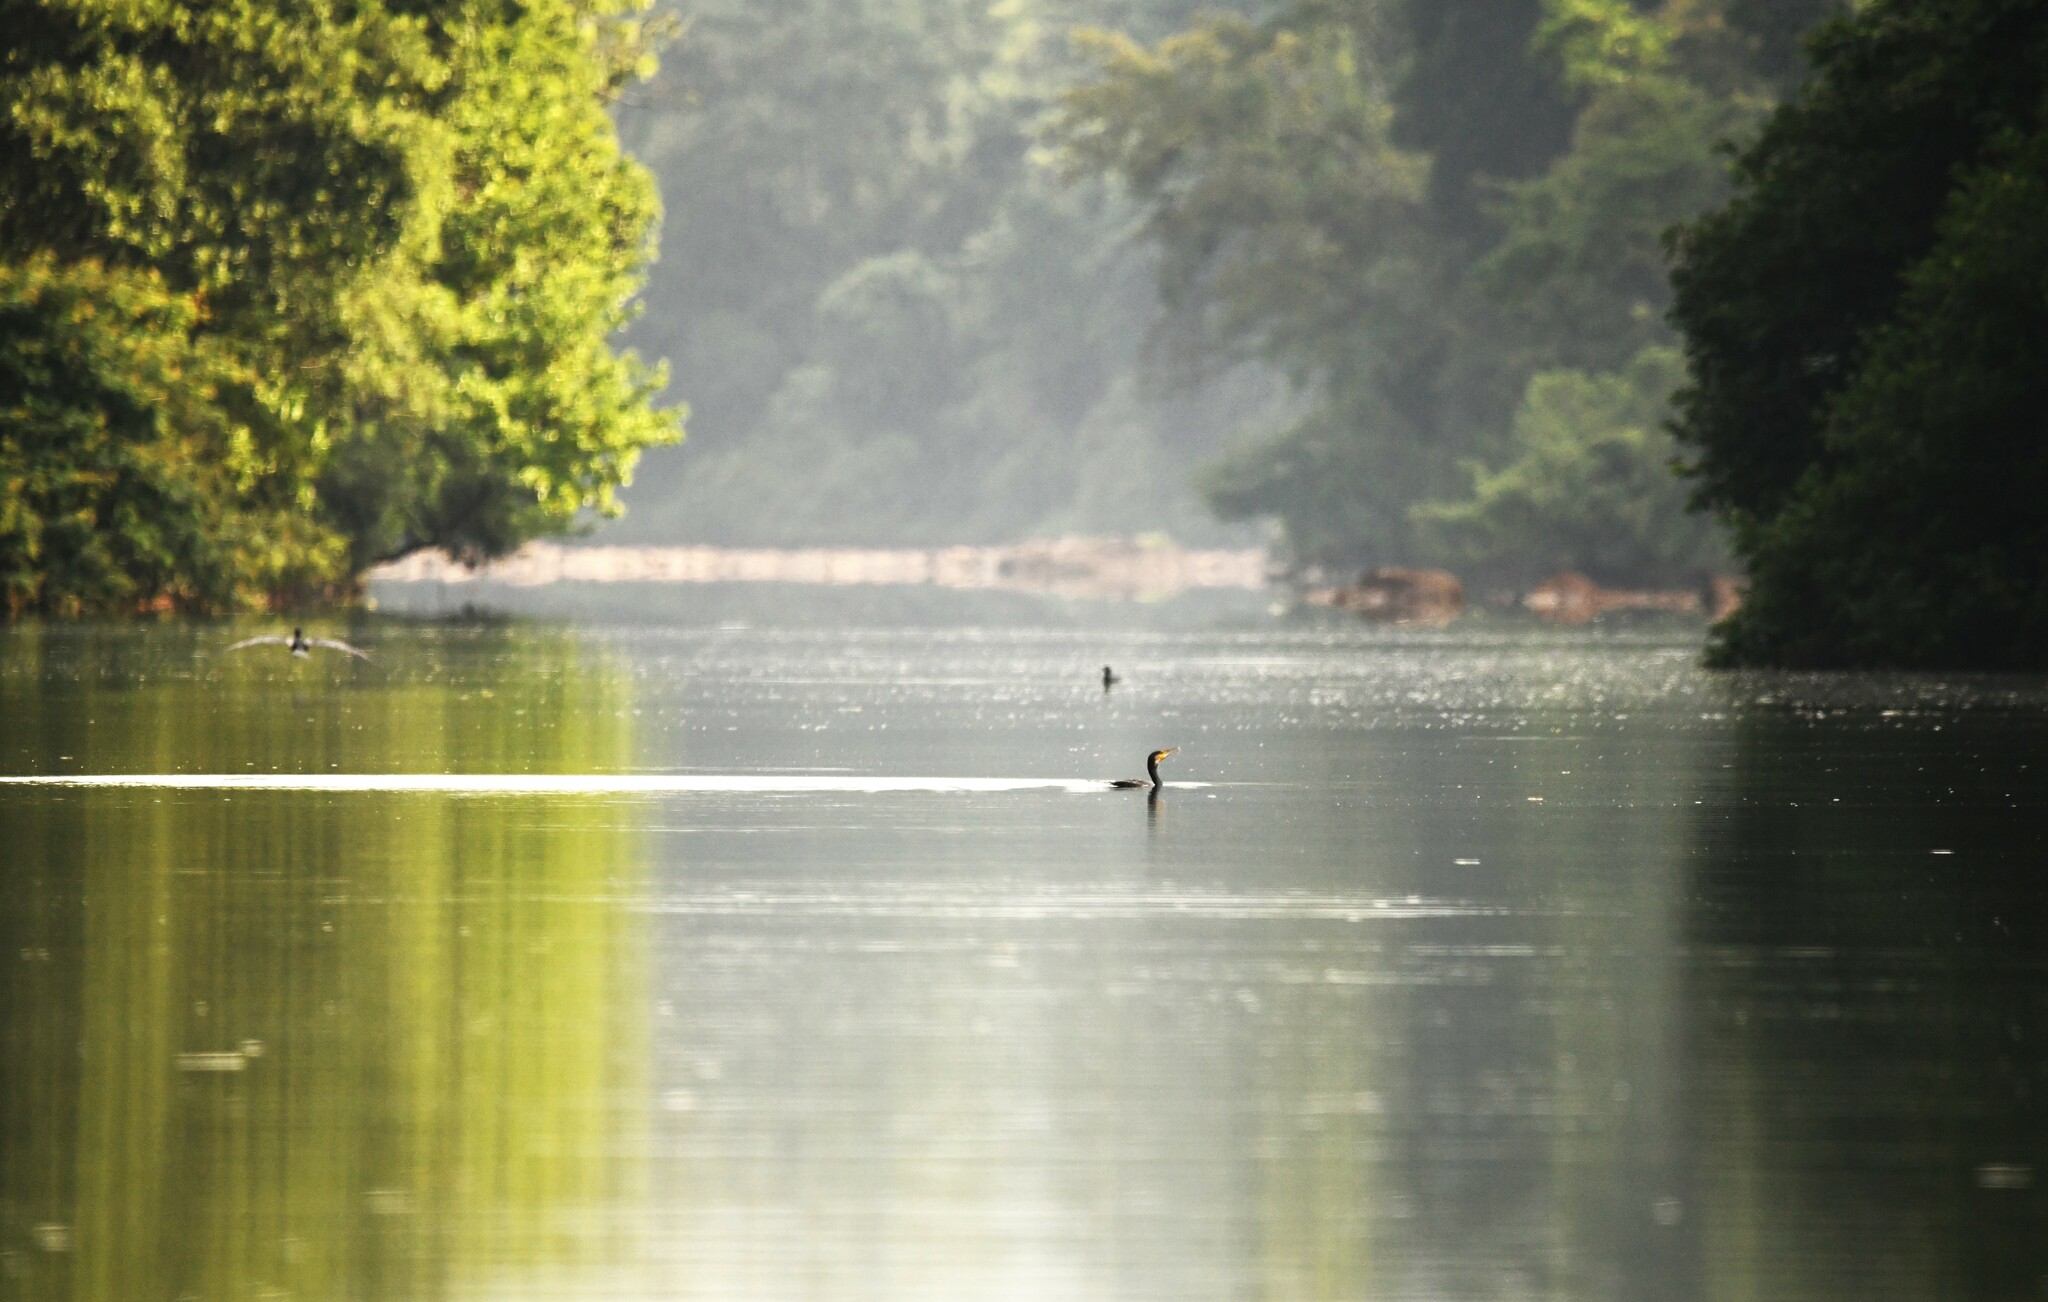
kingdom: Animalia
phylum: Chordata
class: Aves
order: Suliformes
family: Phalacrocoracidae
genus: Phalacrocorax
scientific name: Phalacrocorax carbo
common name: Great cormorant
